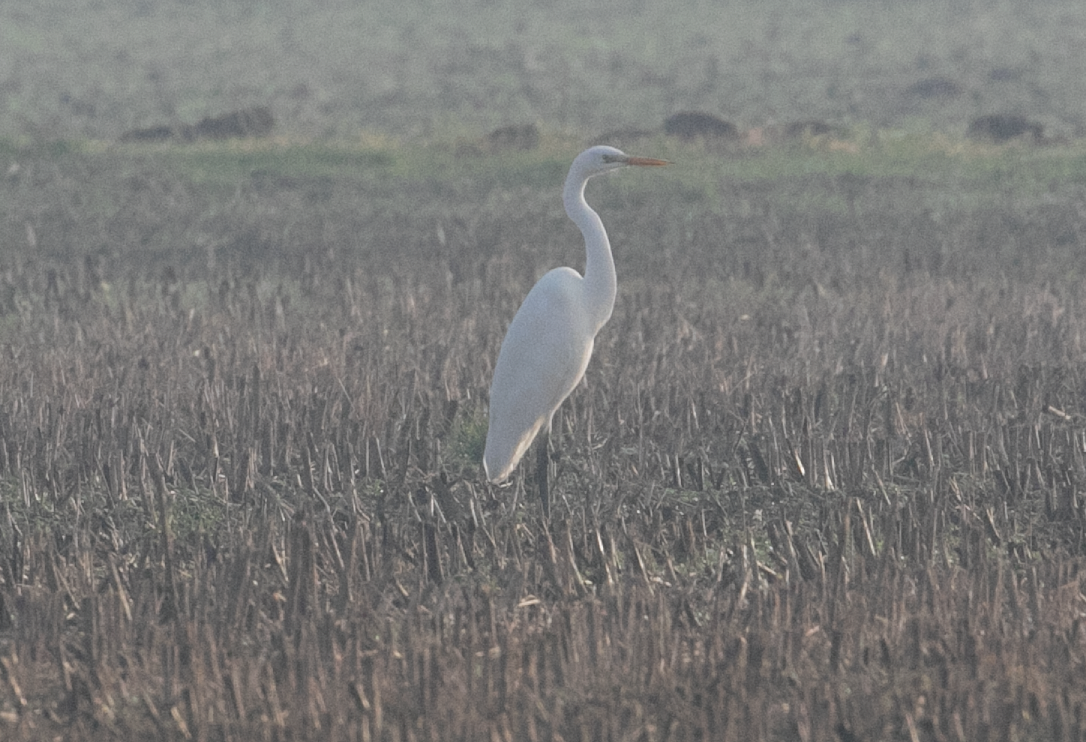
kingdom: Animalia
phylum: Chordata
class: Aves
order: Pelecaniformes
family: Ardeidae
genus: Ardea
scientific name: Ardea alba
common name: Great egret
